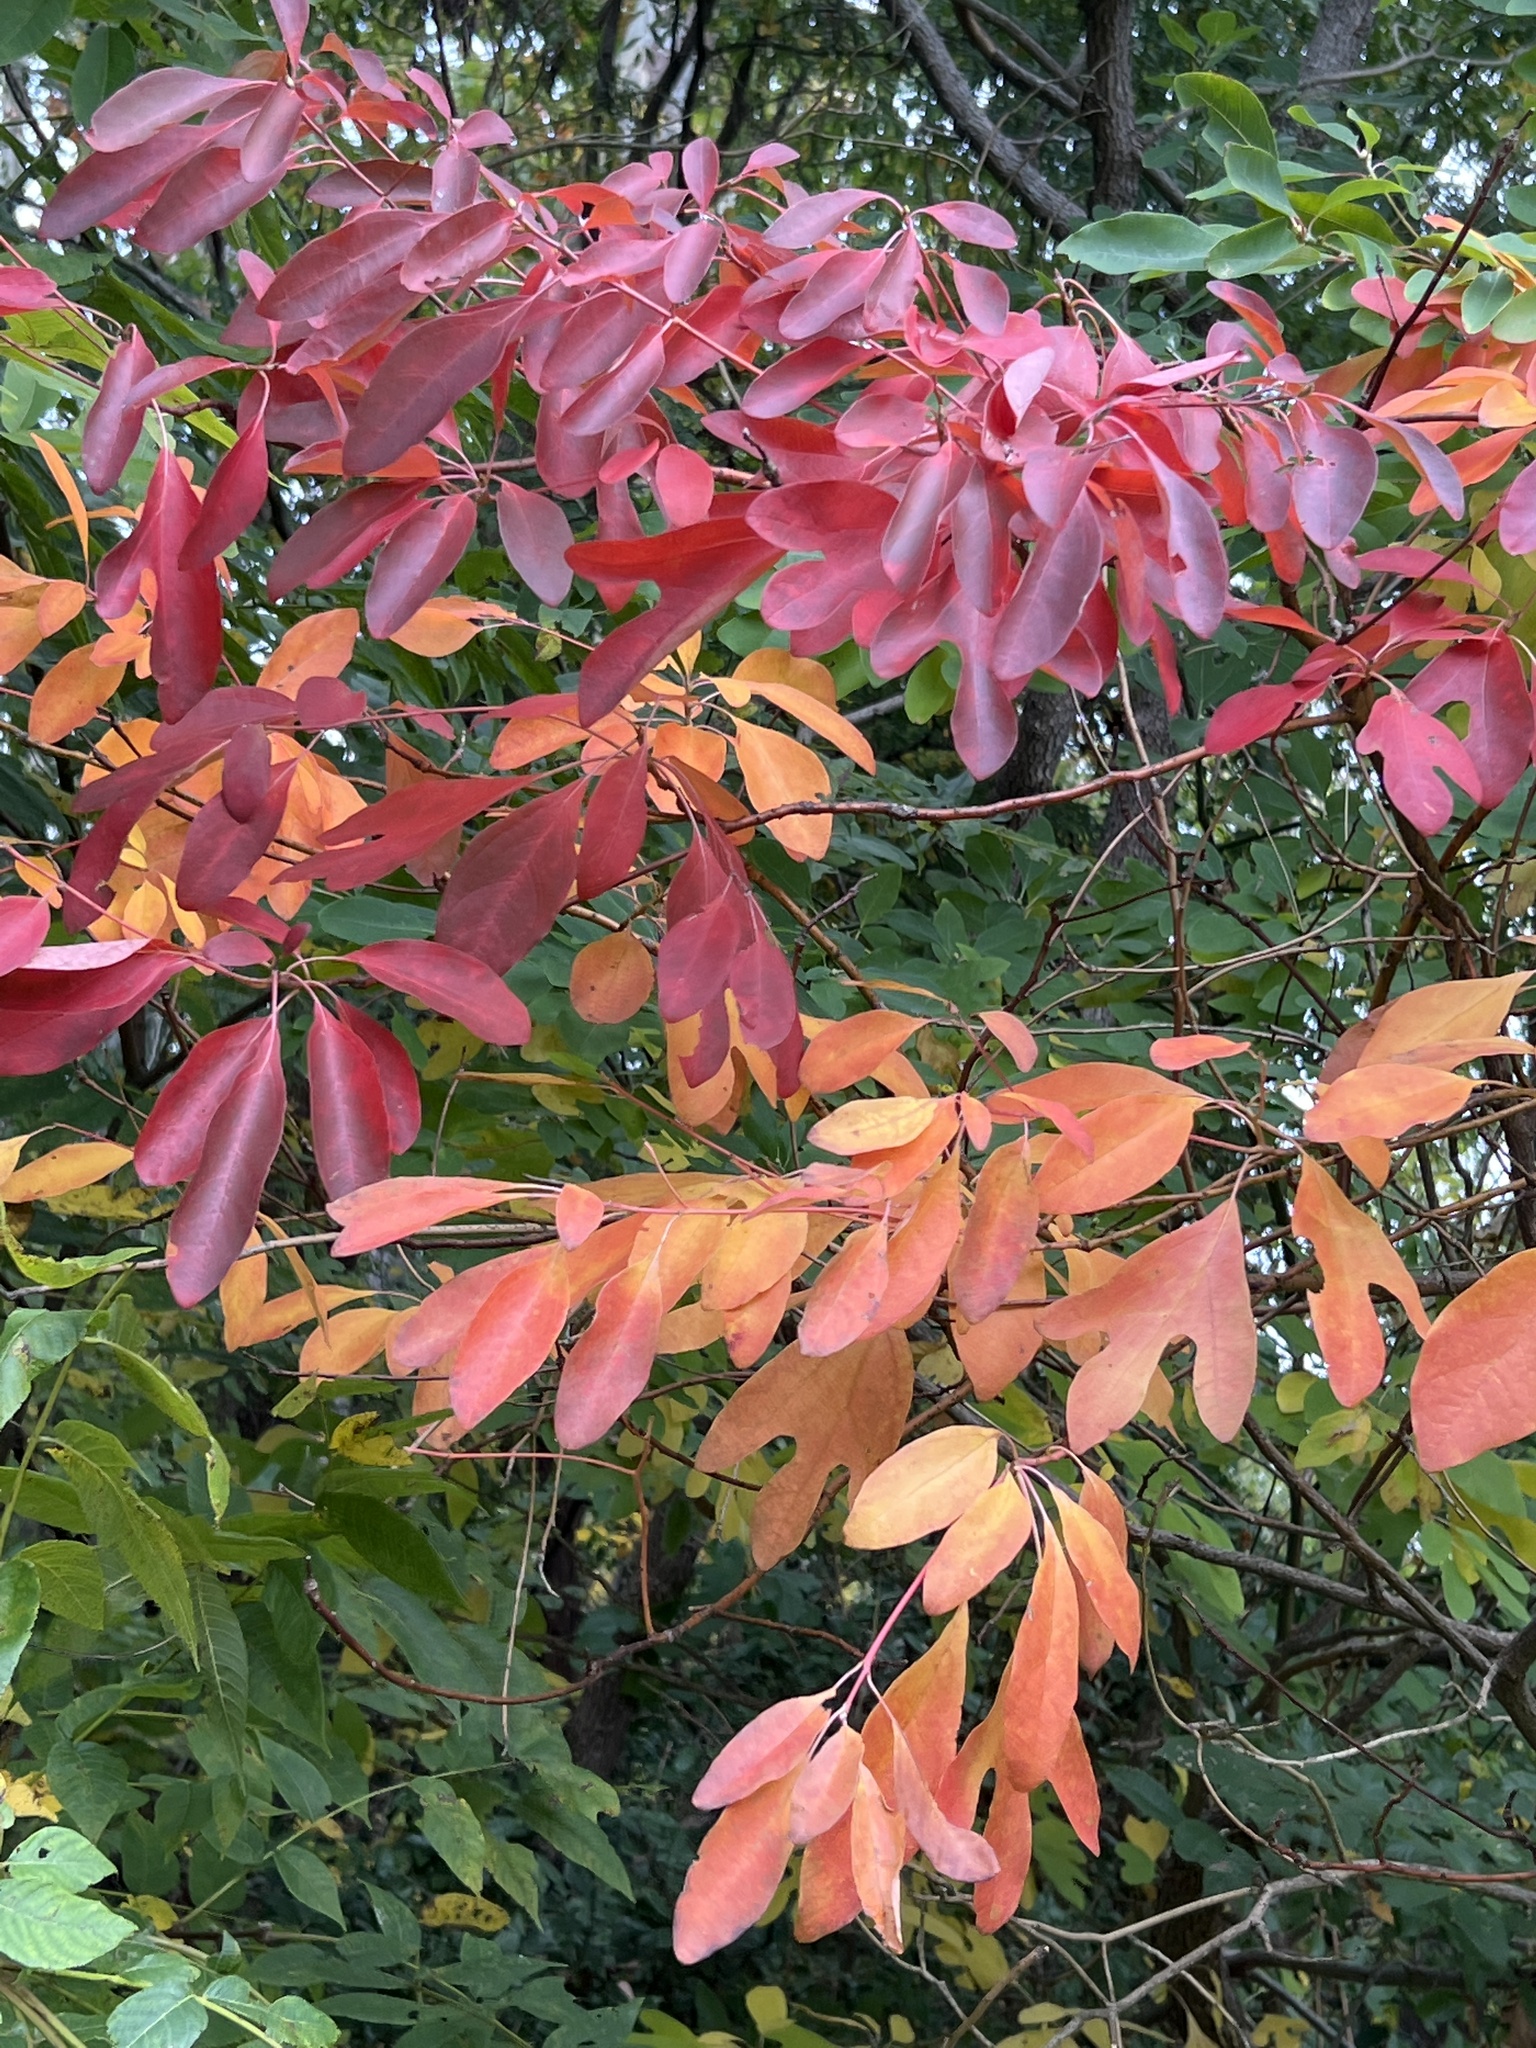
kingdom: Plantae
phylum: Tracheophyta
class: Magnoliopsida
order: Laurales
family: Lauraceae
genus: Sassafras
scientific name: Sassafras albidum
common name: Sassafras
